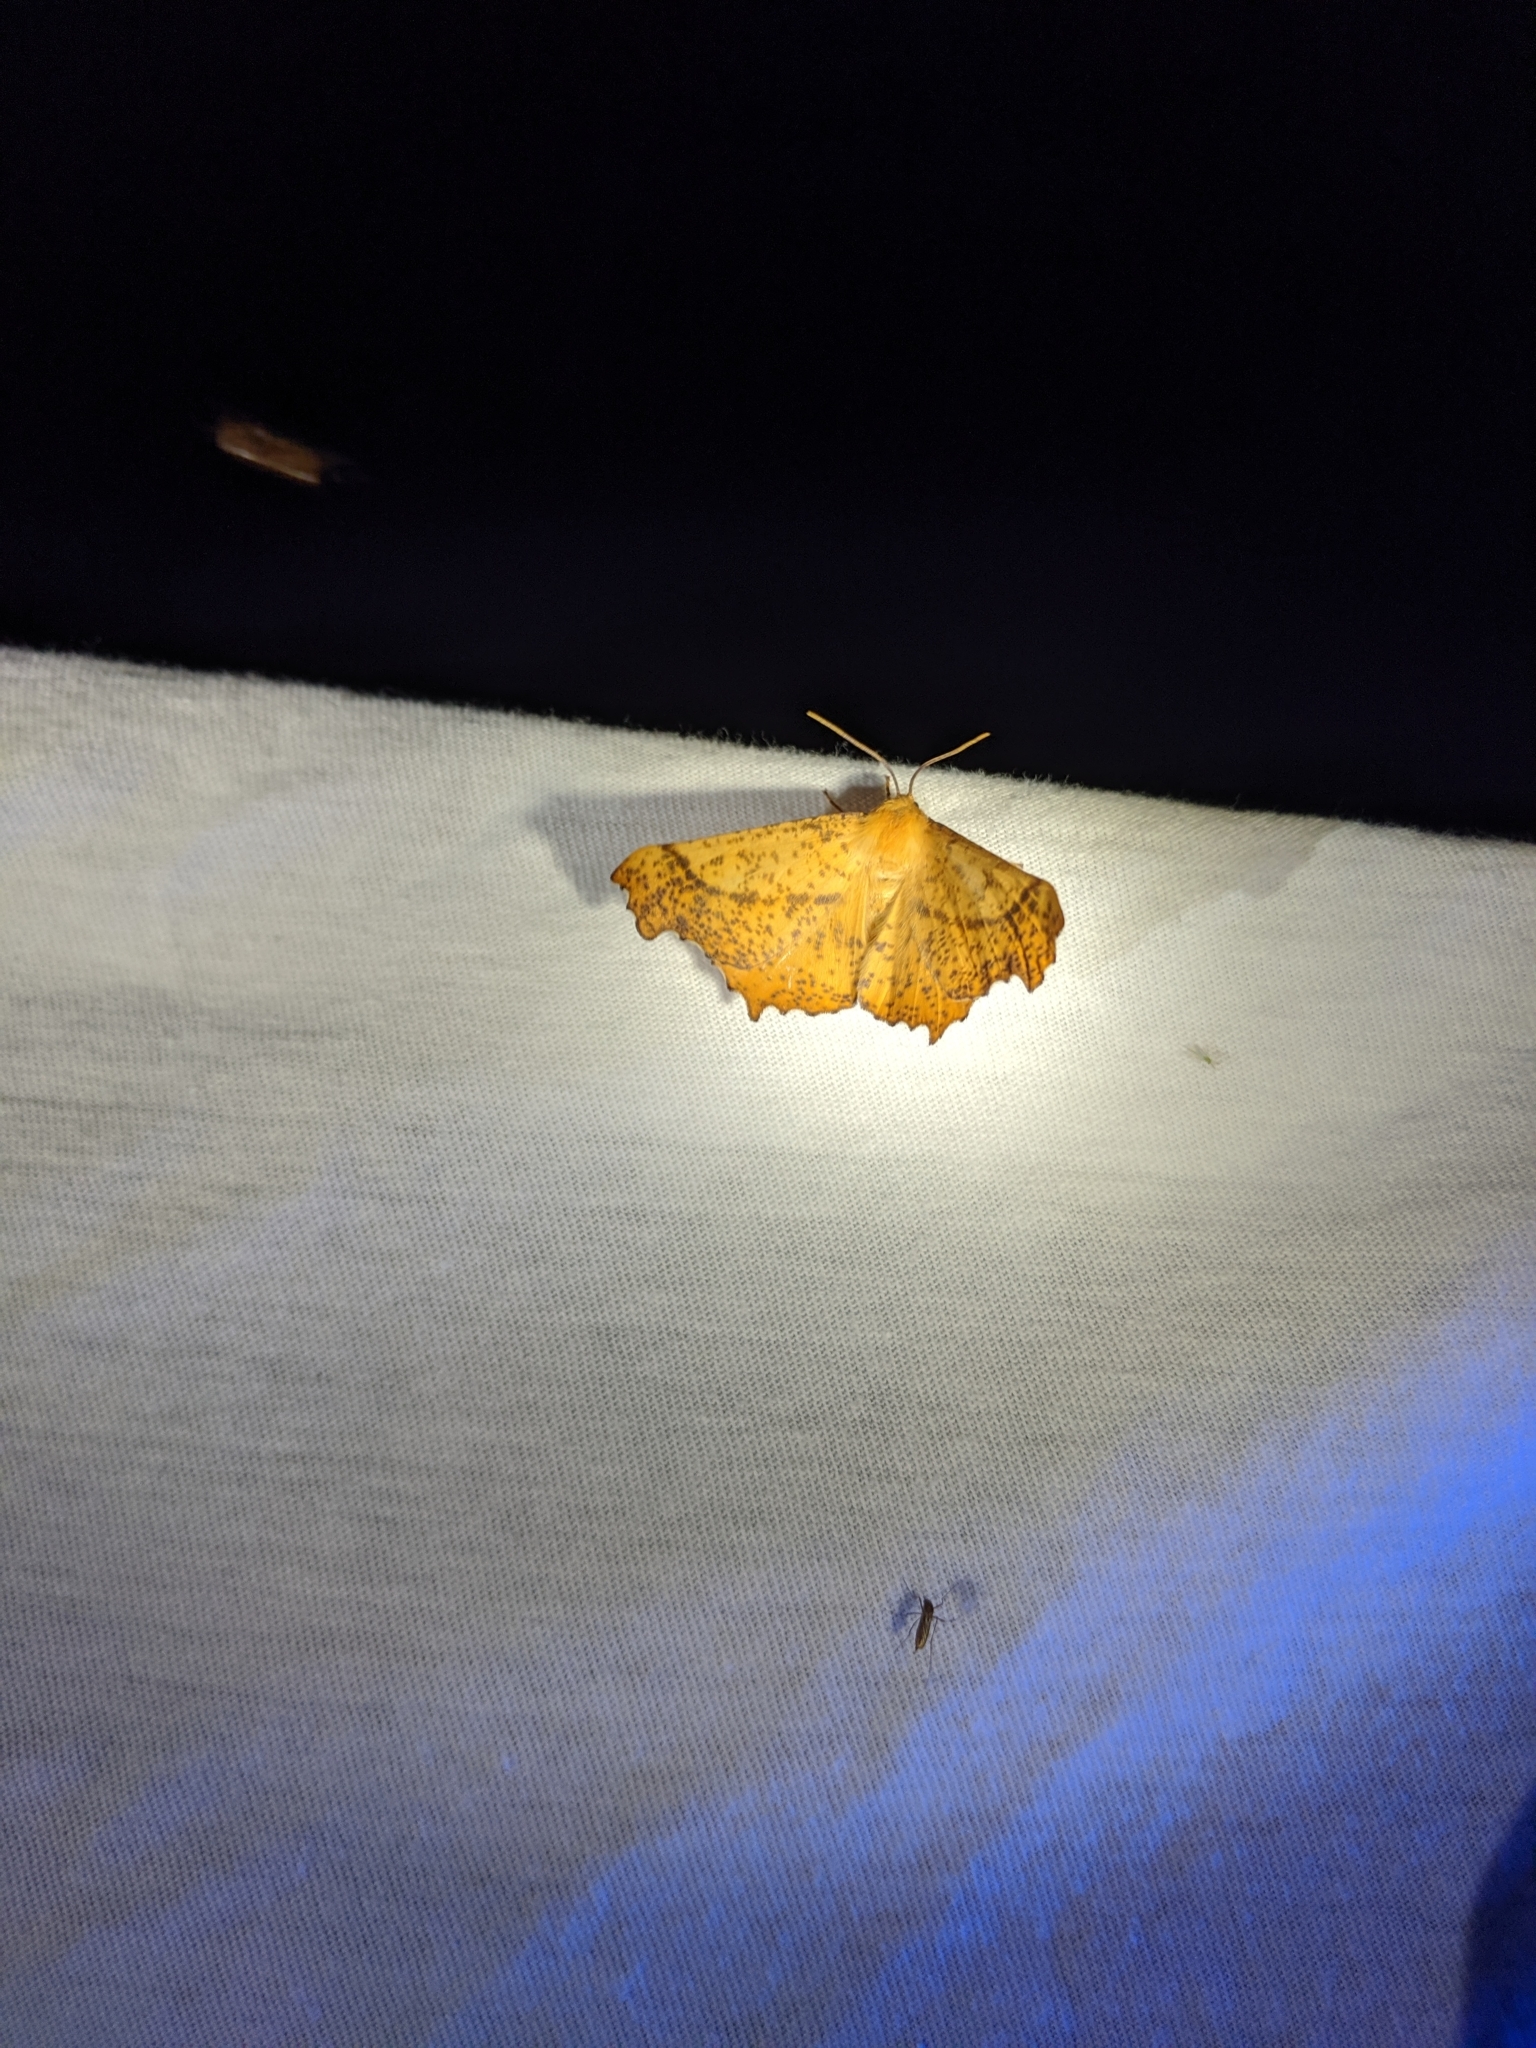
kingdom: Animalia
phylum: Arthropoda
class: Insecta
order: Lepidoptera
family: Geometridae
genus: Ennomos
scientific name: Ennomos magnaria
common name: Maple spanworm
